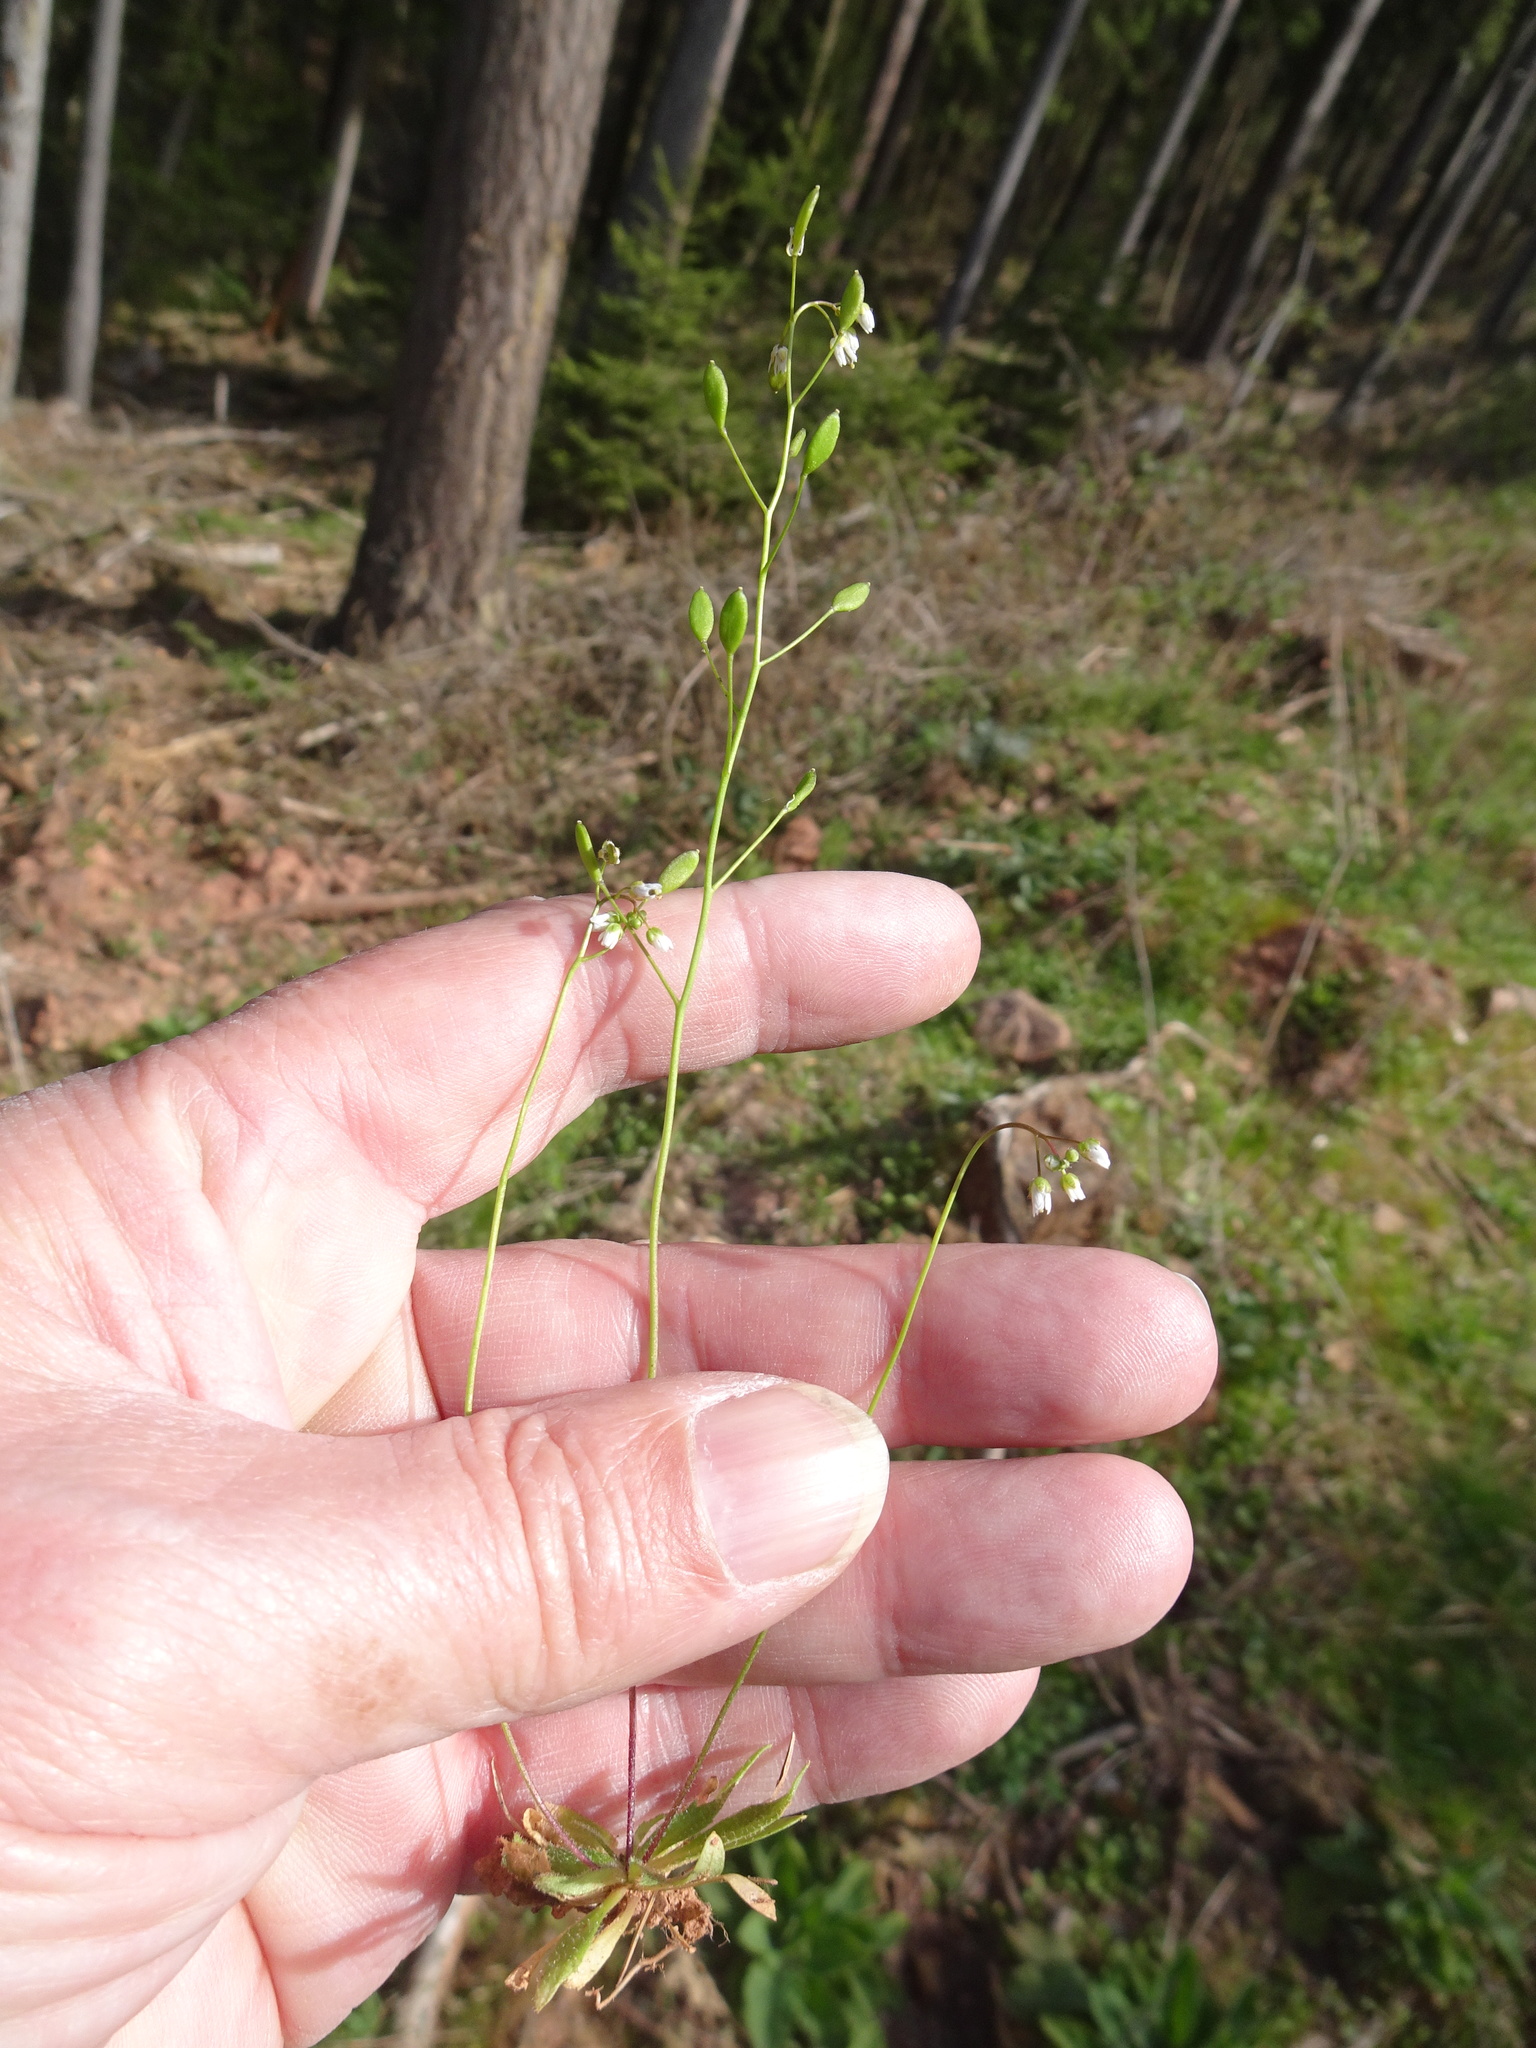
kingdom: Plantae
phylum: Tracheophyta
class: Magnoliopsida
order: Brassicales
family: Brassicaceae
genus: Draba
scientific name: Draba verna
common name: Spring draba
